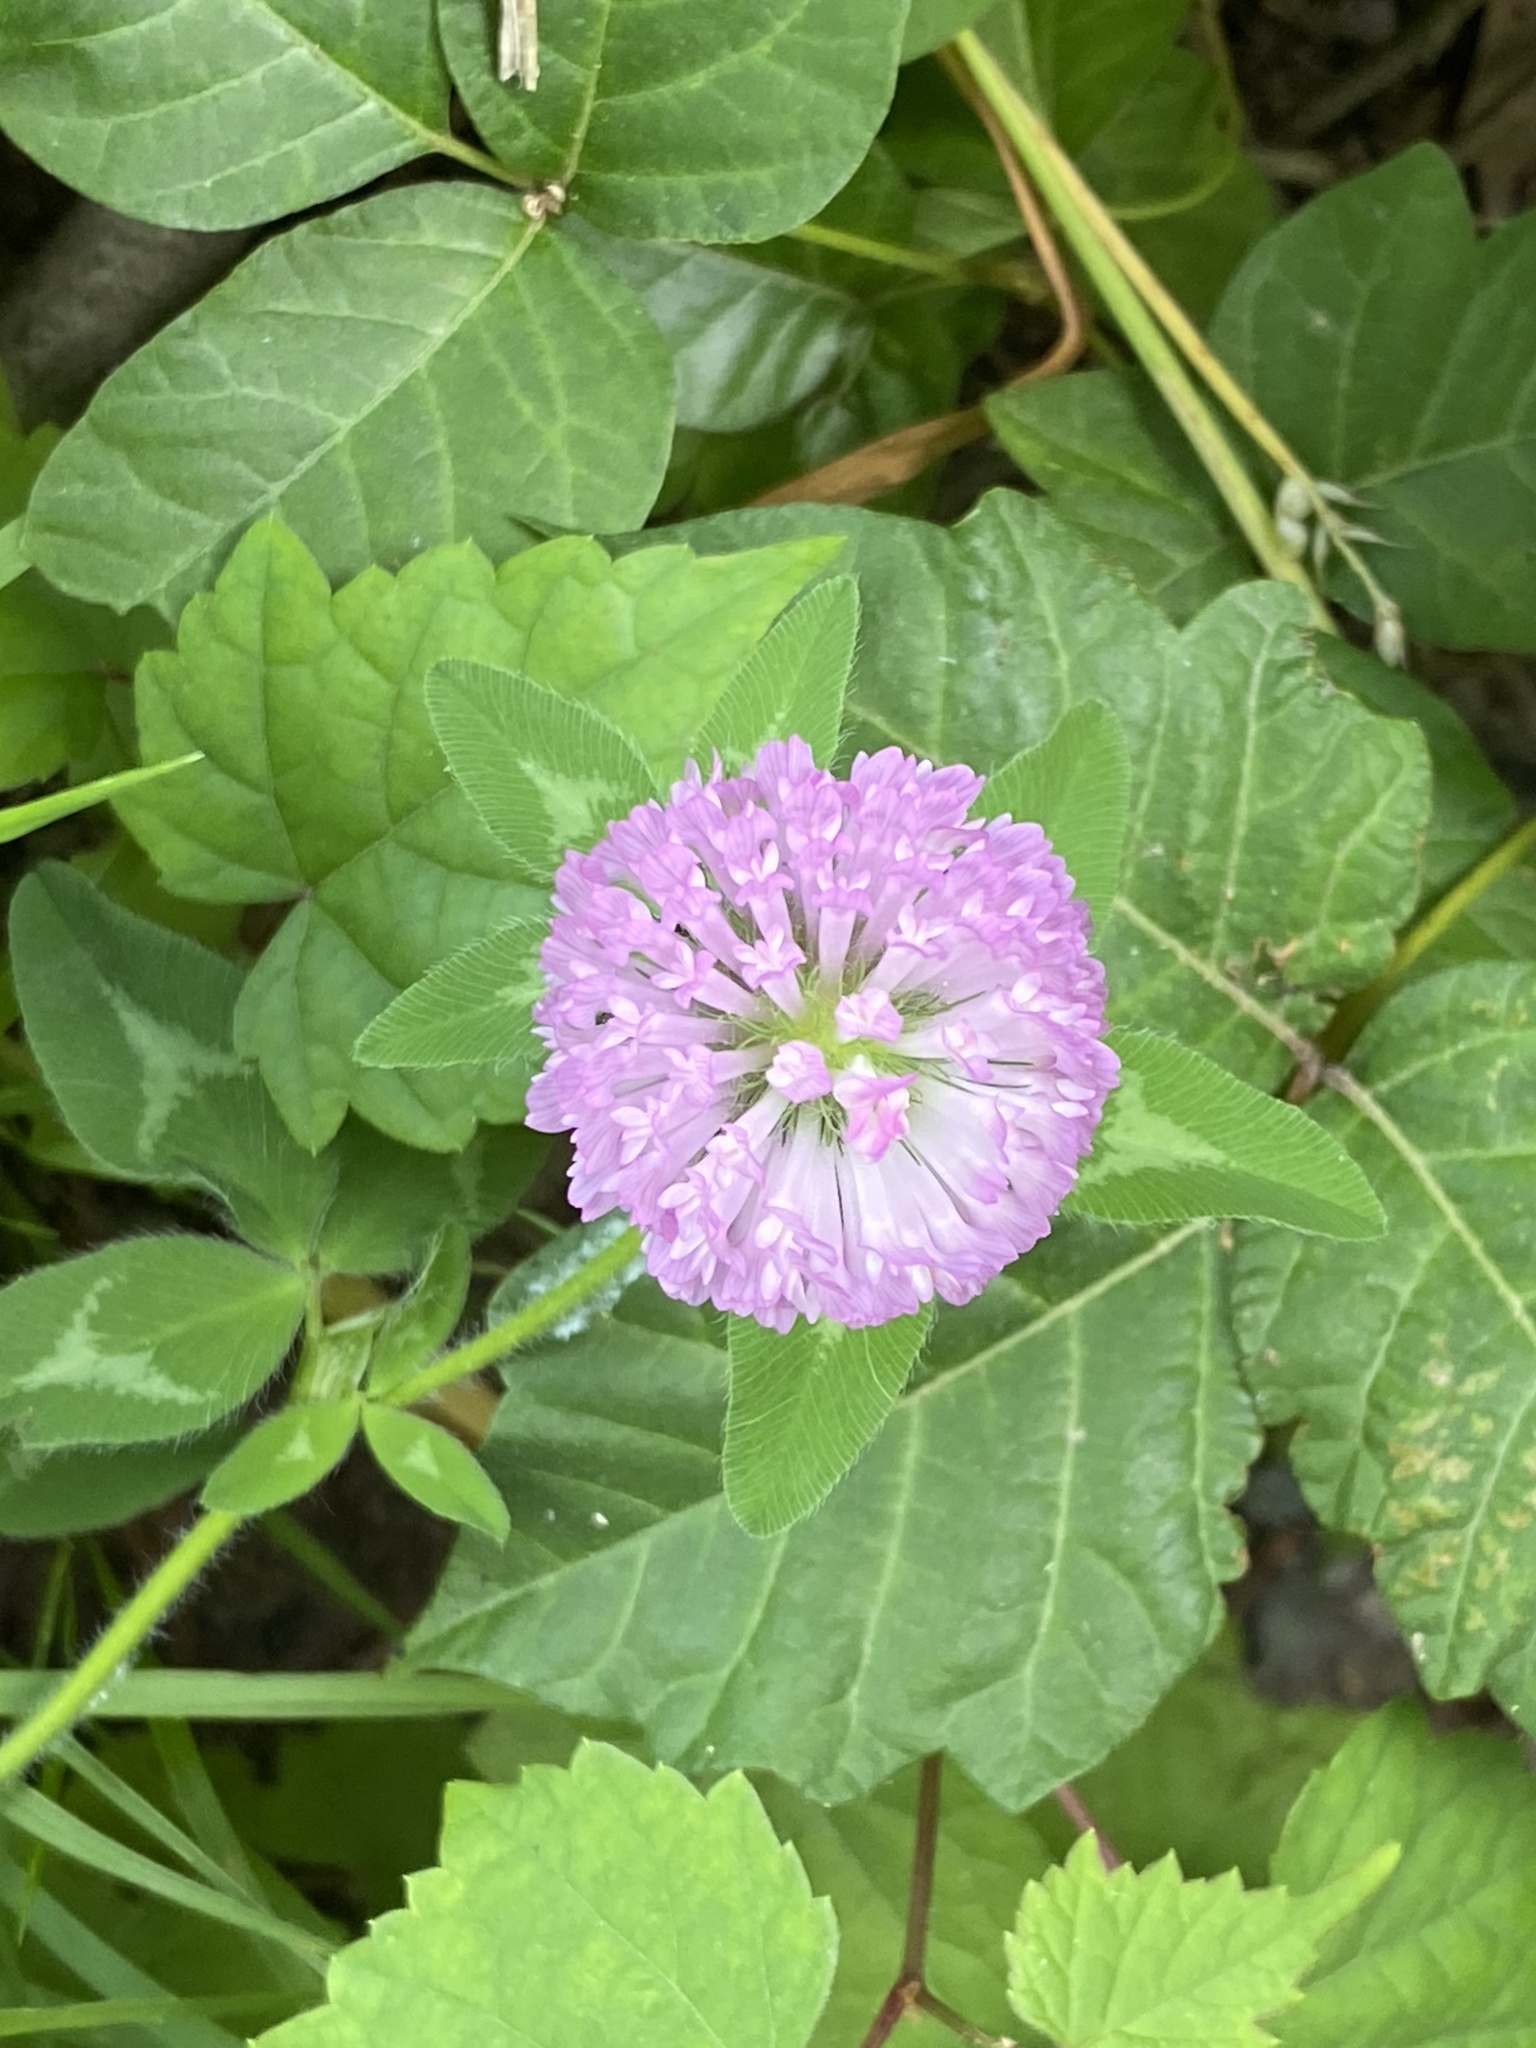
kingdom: Plantae
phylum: Tracheophyta
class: Magnoliopsida
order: Fabales
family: Fabaceae
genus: Trifolium
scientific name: Trifolium pratense
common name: Red clover
